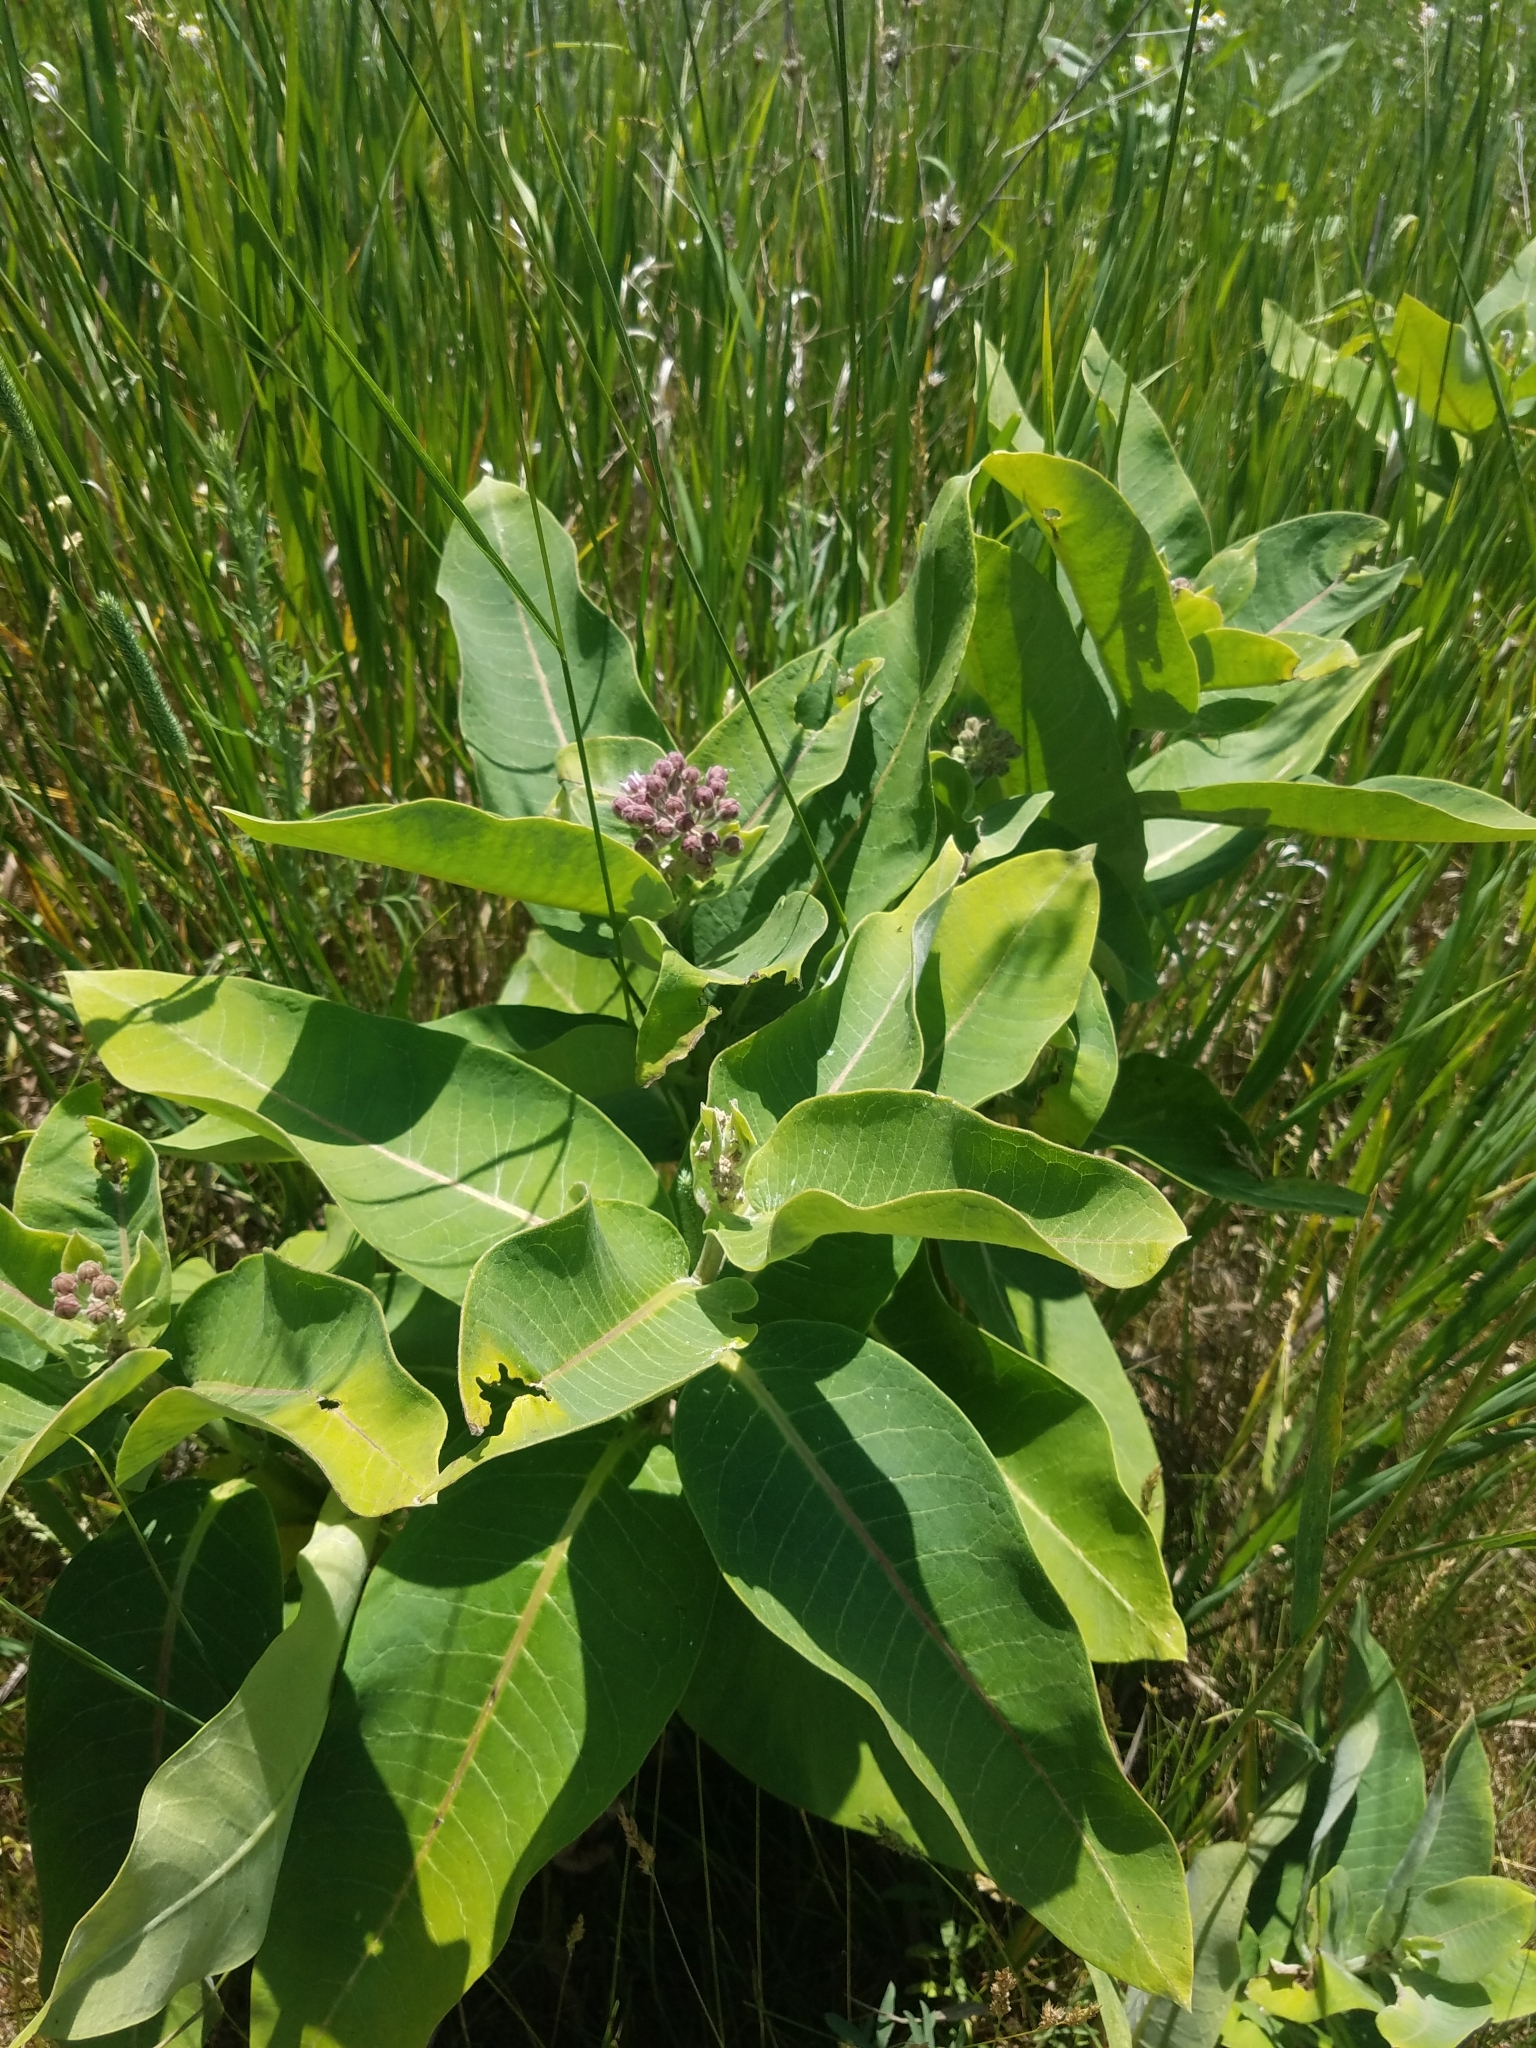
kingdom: Plantae
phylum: Tracheophyta
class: Magnoliopsida
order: Gentianales
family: Apocynaceae
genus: Asclepias
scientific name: Asclepias syriaca
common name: Common milkweed
